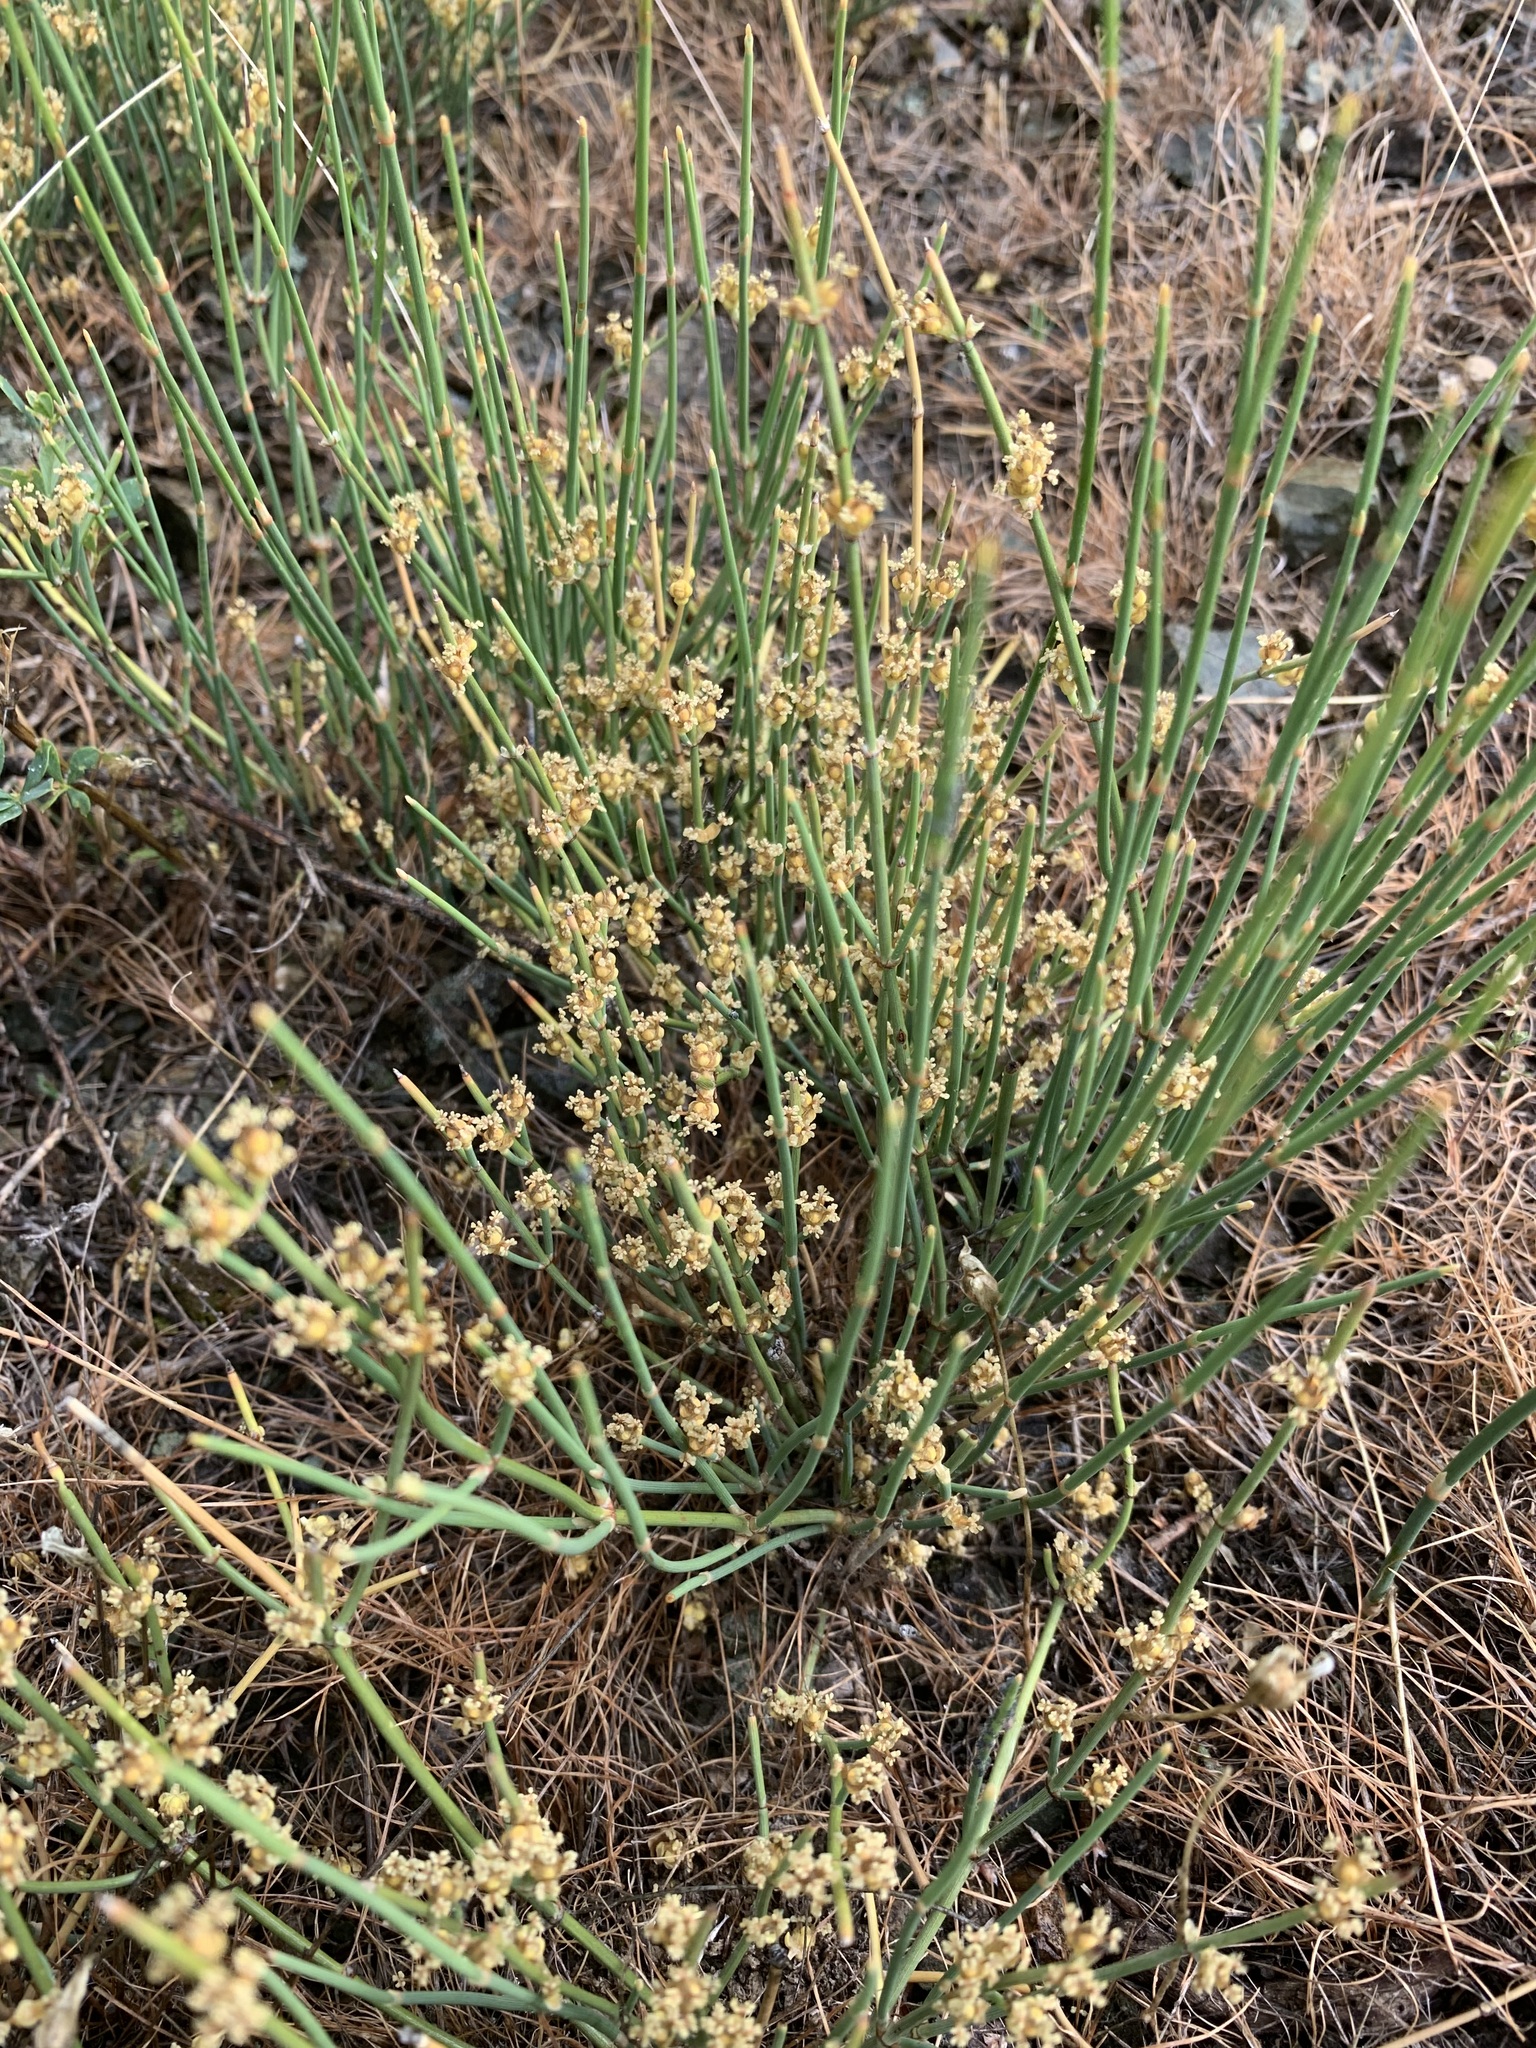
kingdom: Plantae
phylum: Tracheophyta
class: Gnetopsida
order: Ephedrales
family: Ephedraceae
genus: Ephedra
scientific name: Ephedra distachya
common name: Sea grape
